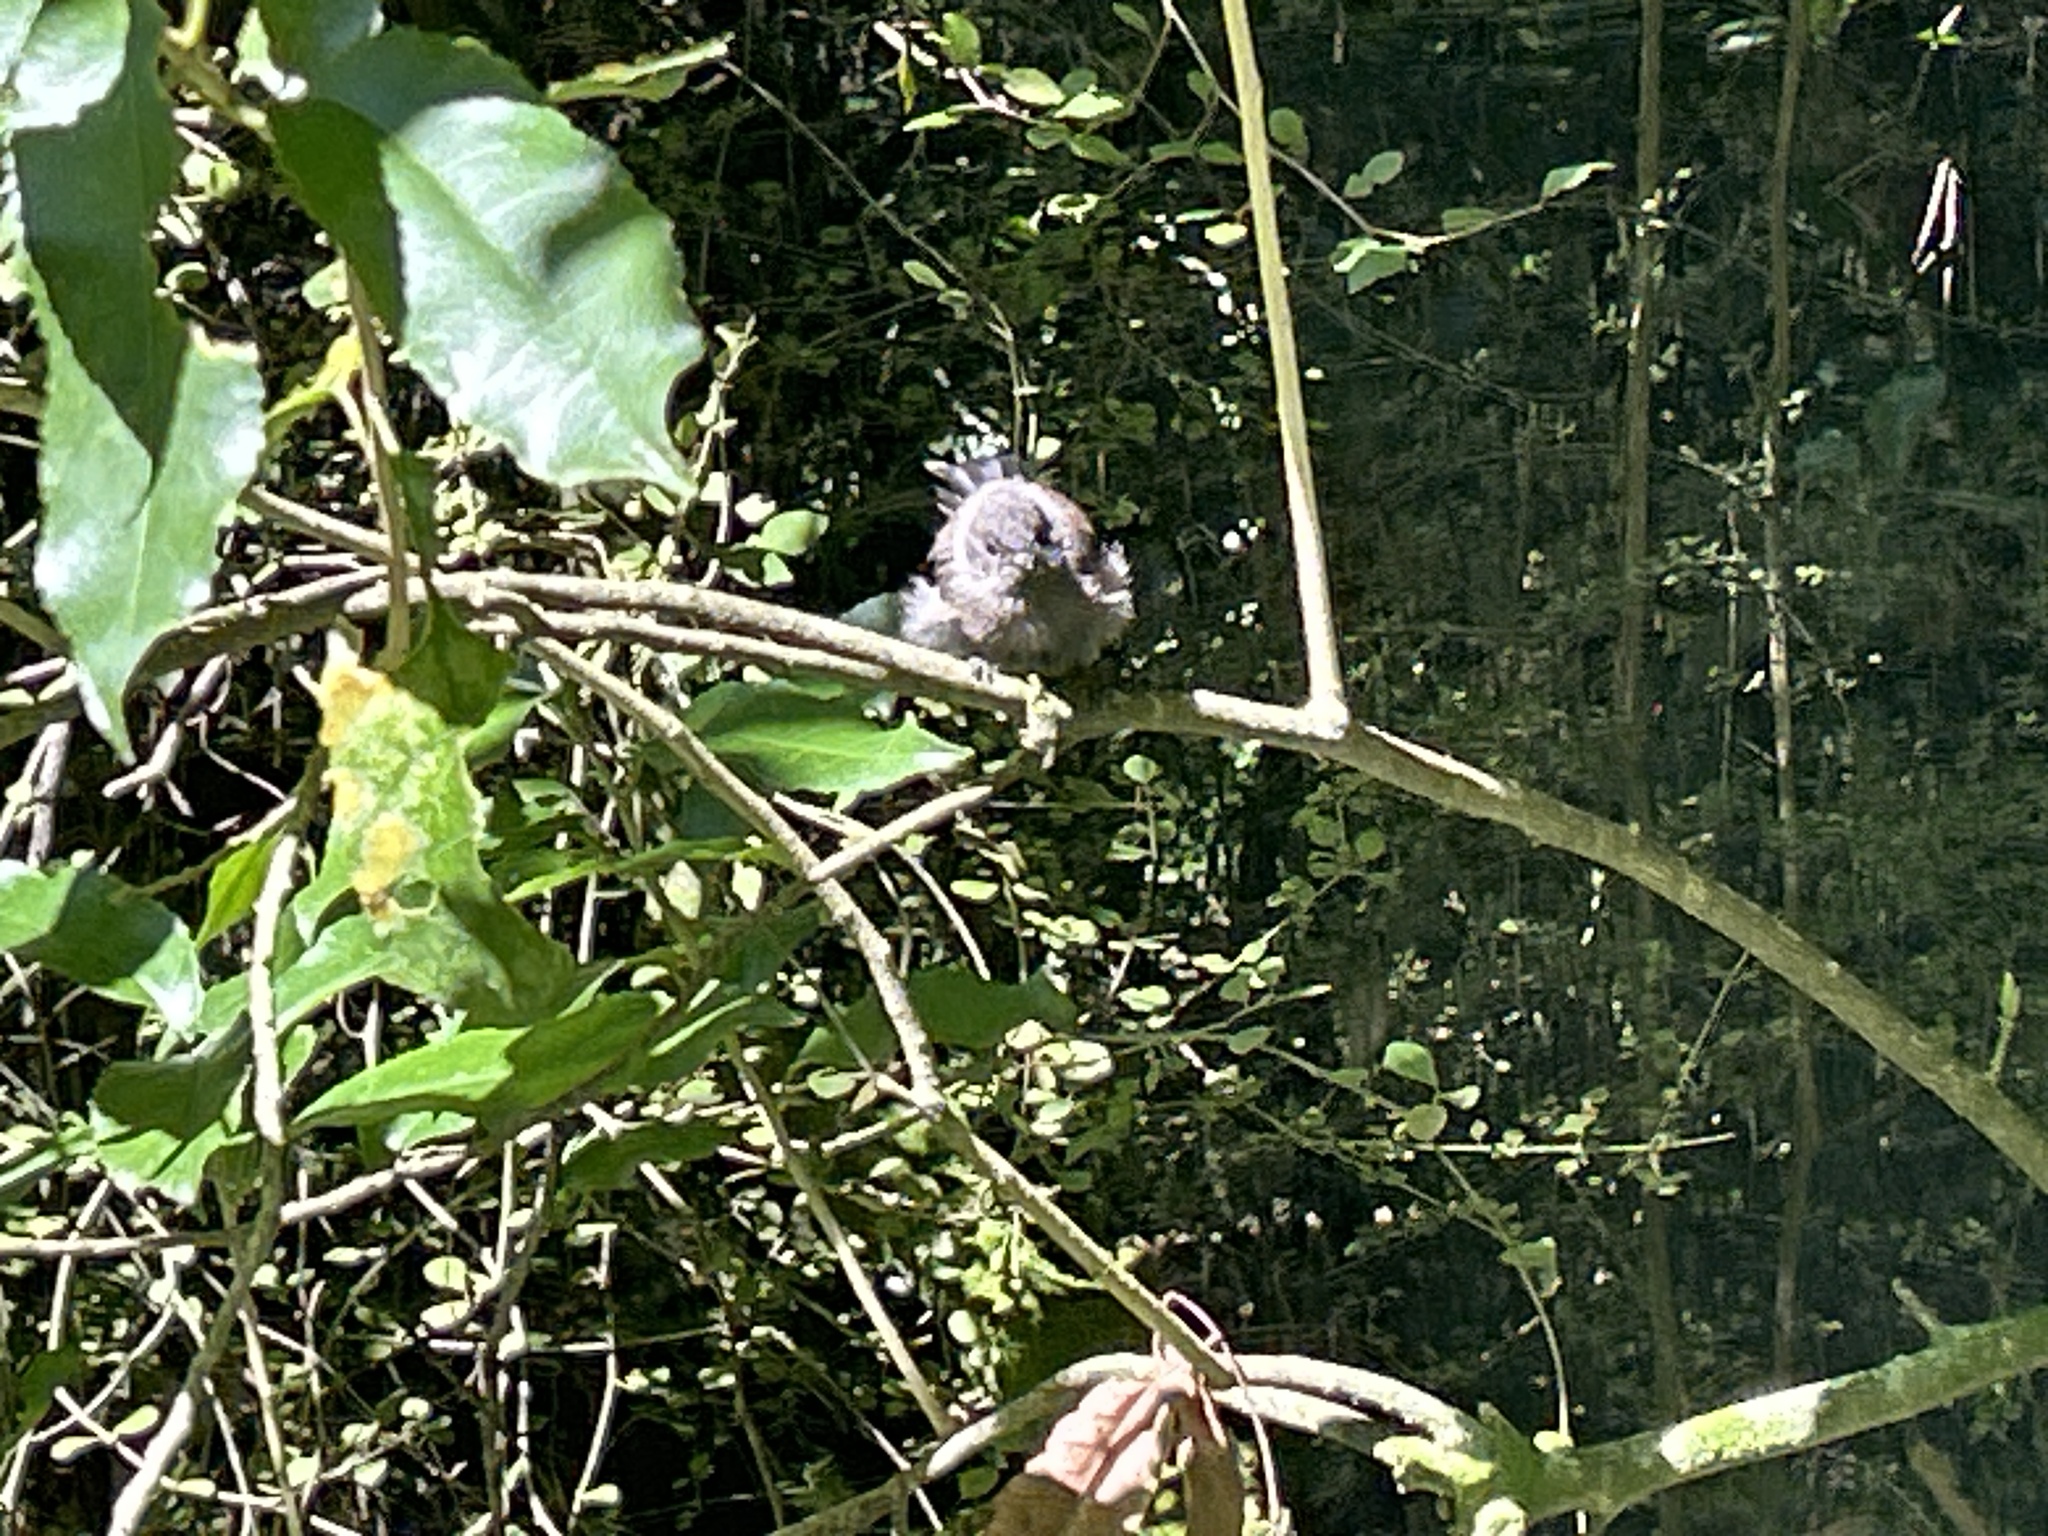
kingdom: Animalia
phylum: Chordata
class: Aves
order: Passeriformes
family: Rhipiduridae
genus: Rhipidura
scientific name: Rhipidura fuliginosa
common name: New zealand fantail
